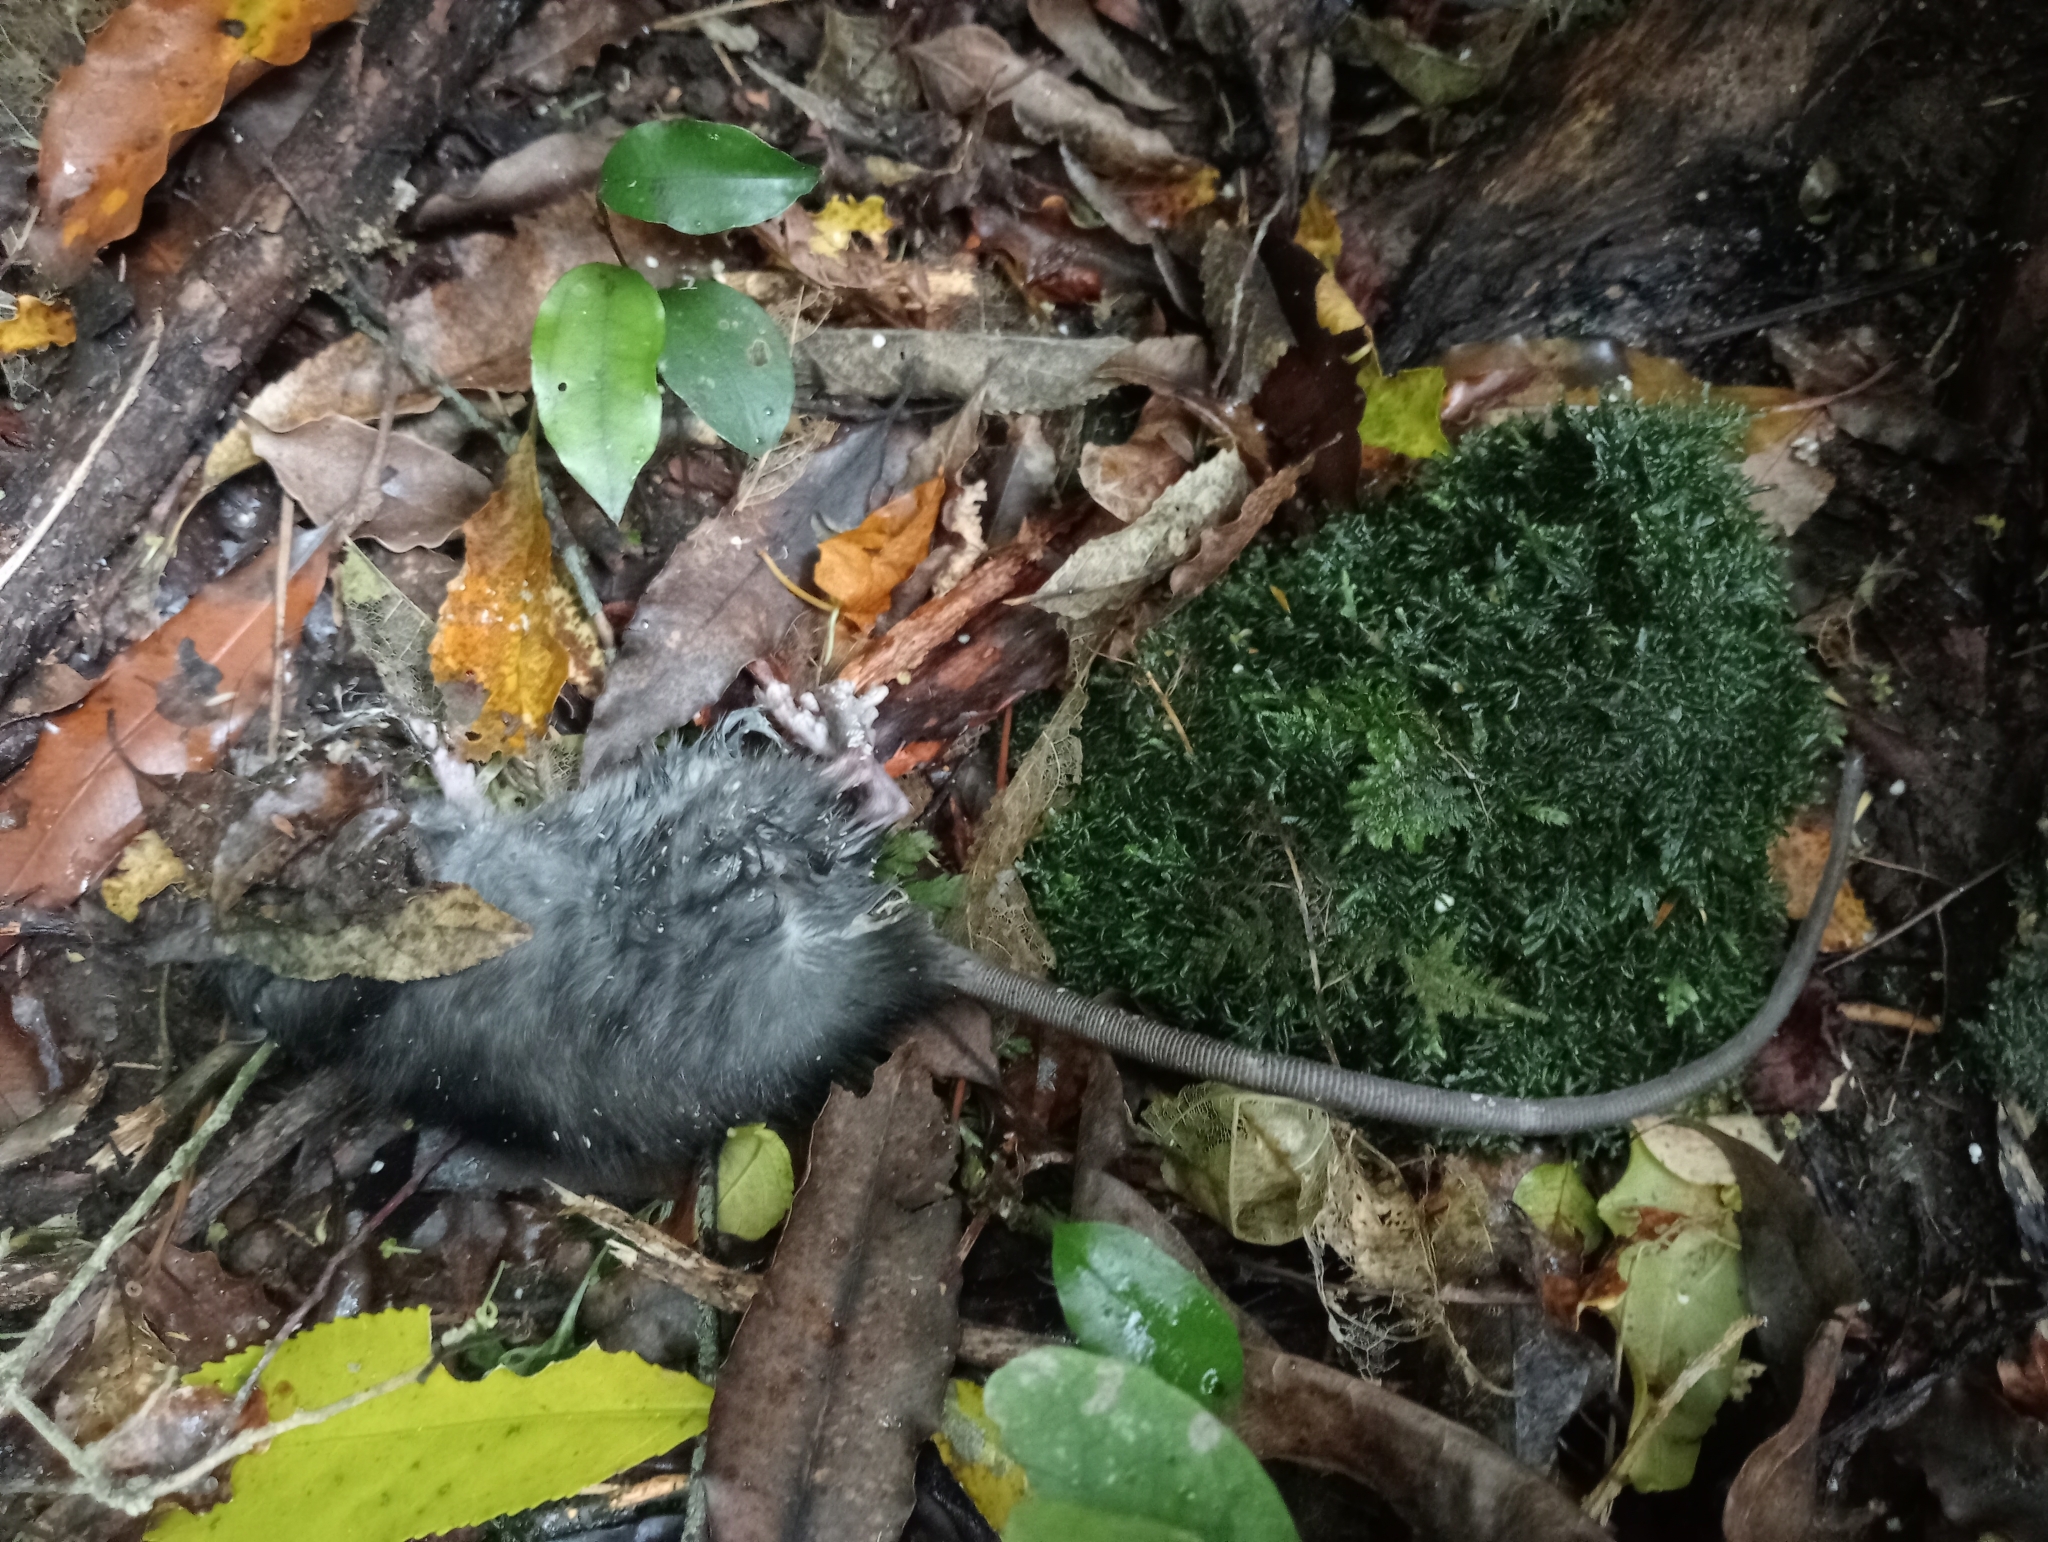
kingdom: Animalia
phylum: Chordata
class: Mammalia
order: Rodentia
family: Muridae
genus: Rattus
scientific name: Rattus rattus
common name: Black rat
